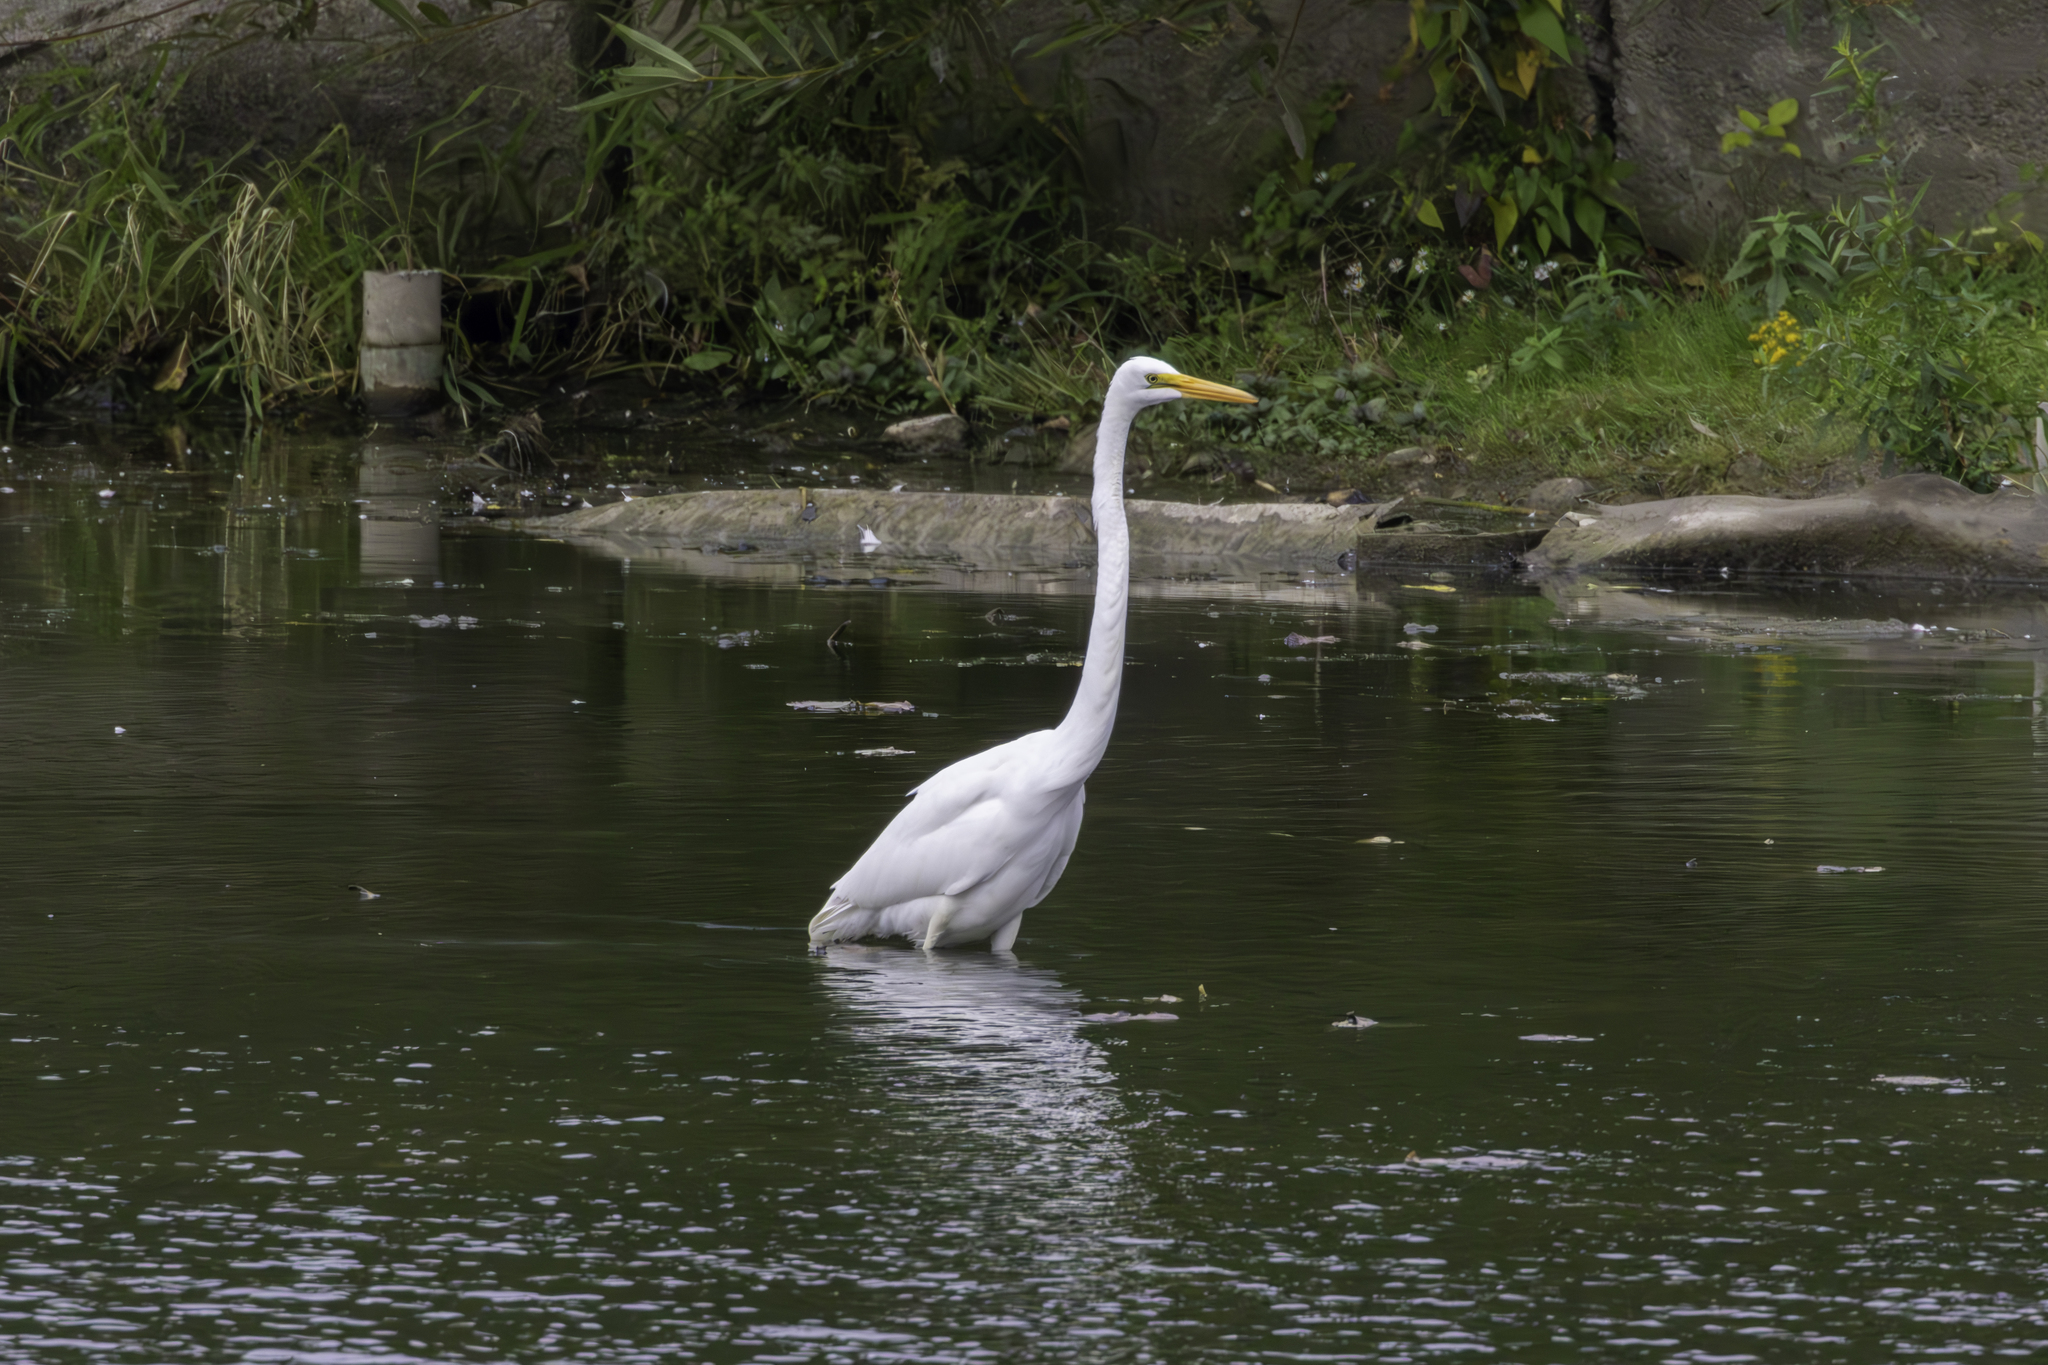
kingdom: Animalia
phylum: Chordata
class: Aves
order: Pelecaniformes
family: Ardeidae
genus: Ardea
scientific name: Ardea alba
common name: Great egret
